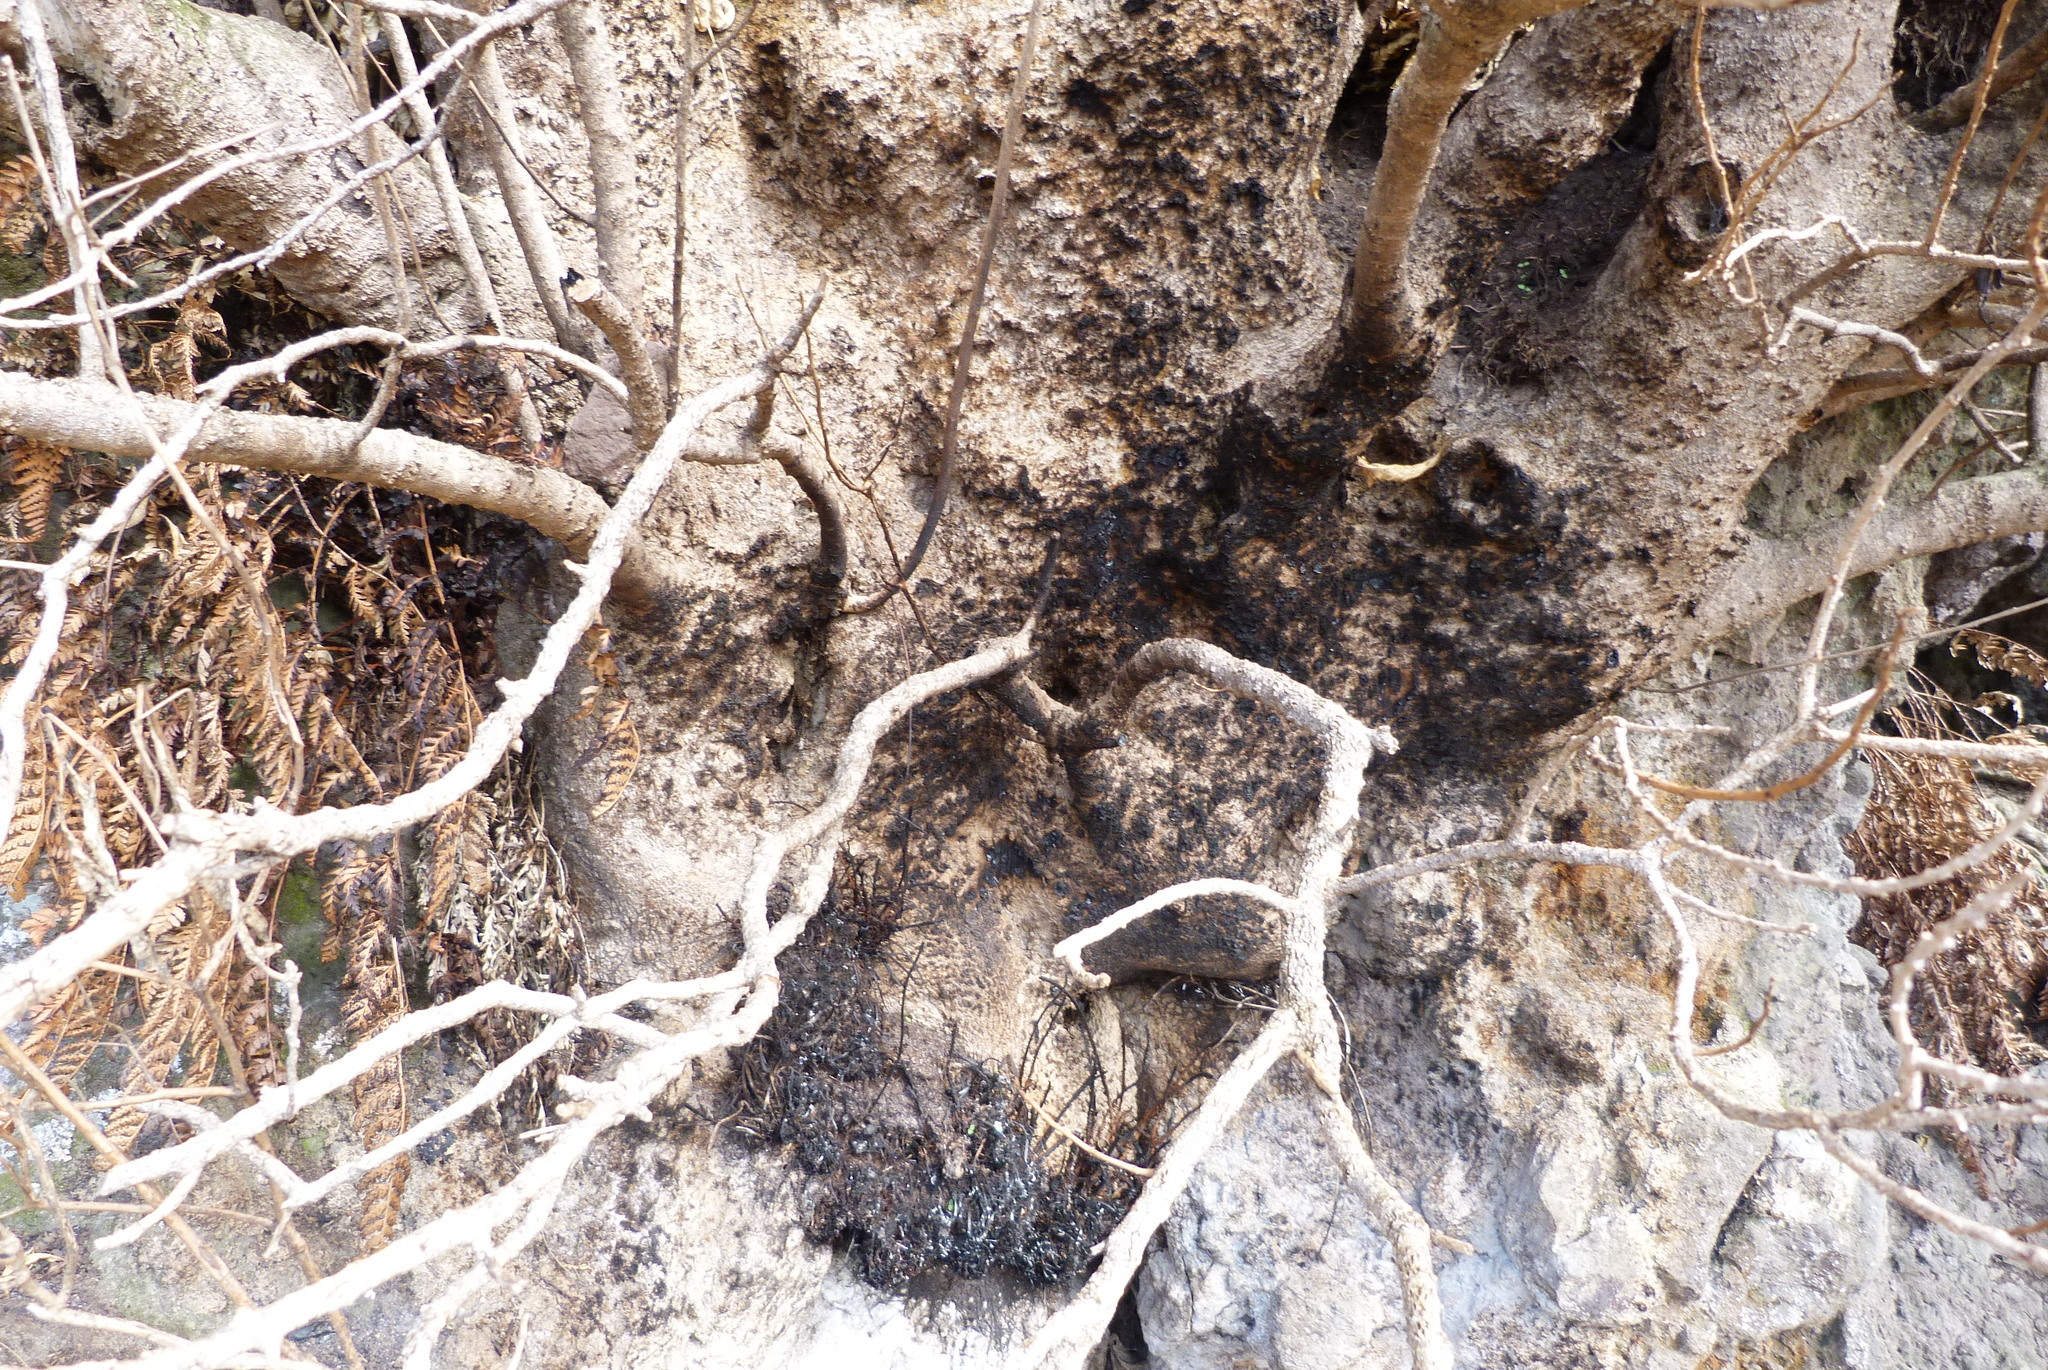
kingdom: Plantae
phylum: Tracheophyta
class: Magnoliopsida
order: Malpighiales
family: Violaceae
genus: Melicytus
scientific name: Melicytus ramiflorus
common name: Mahoe
